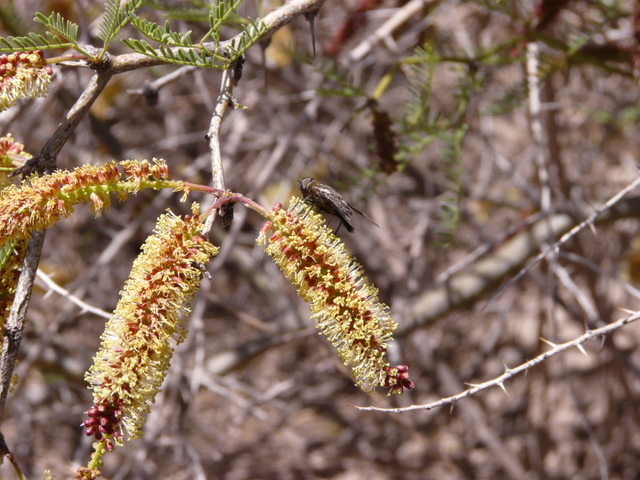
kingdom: Plantae
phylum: Tracheophyta
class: Magnoliopsida
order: Fabales
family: Fabaceae
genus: Prosopis
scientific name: Prosopis flexuosa
